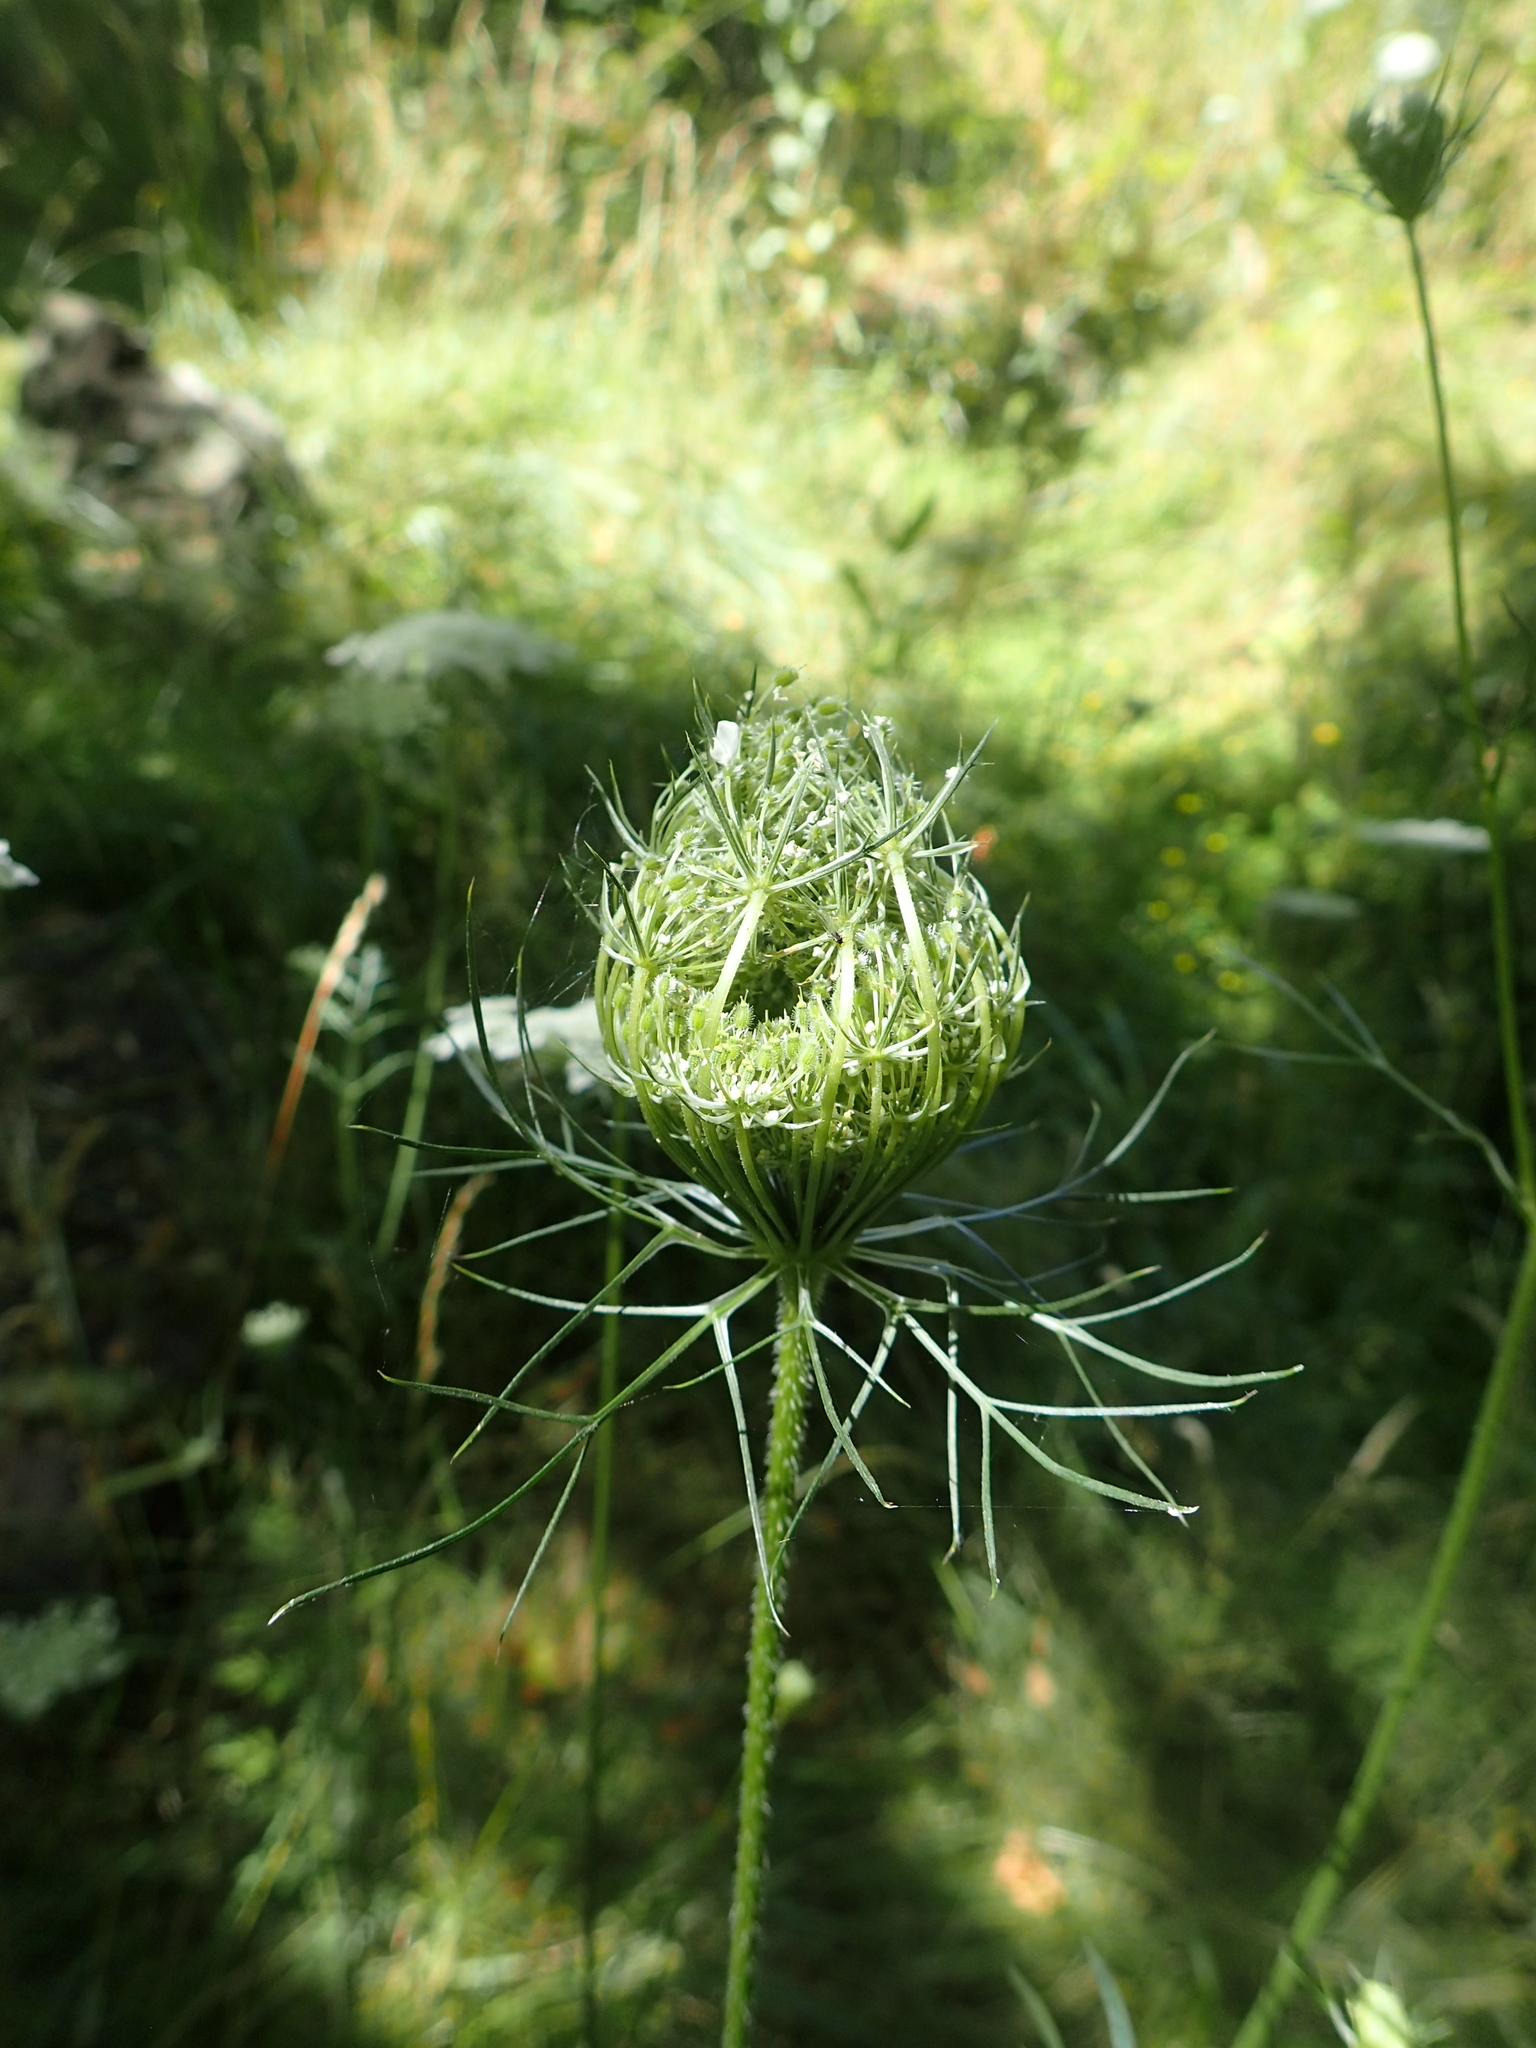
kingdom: Plantae
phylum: Tracheophyta
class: Magnoliopsida
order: Apiales
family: Apiaceae
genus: Daucus
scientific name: Daucus carota
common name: Wild carrot
